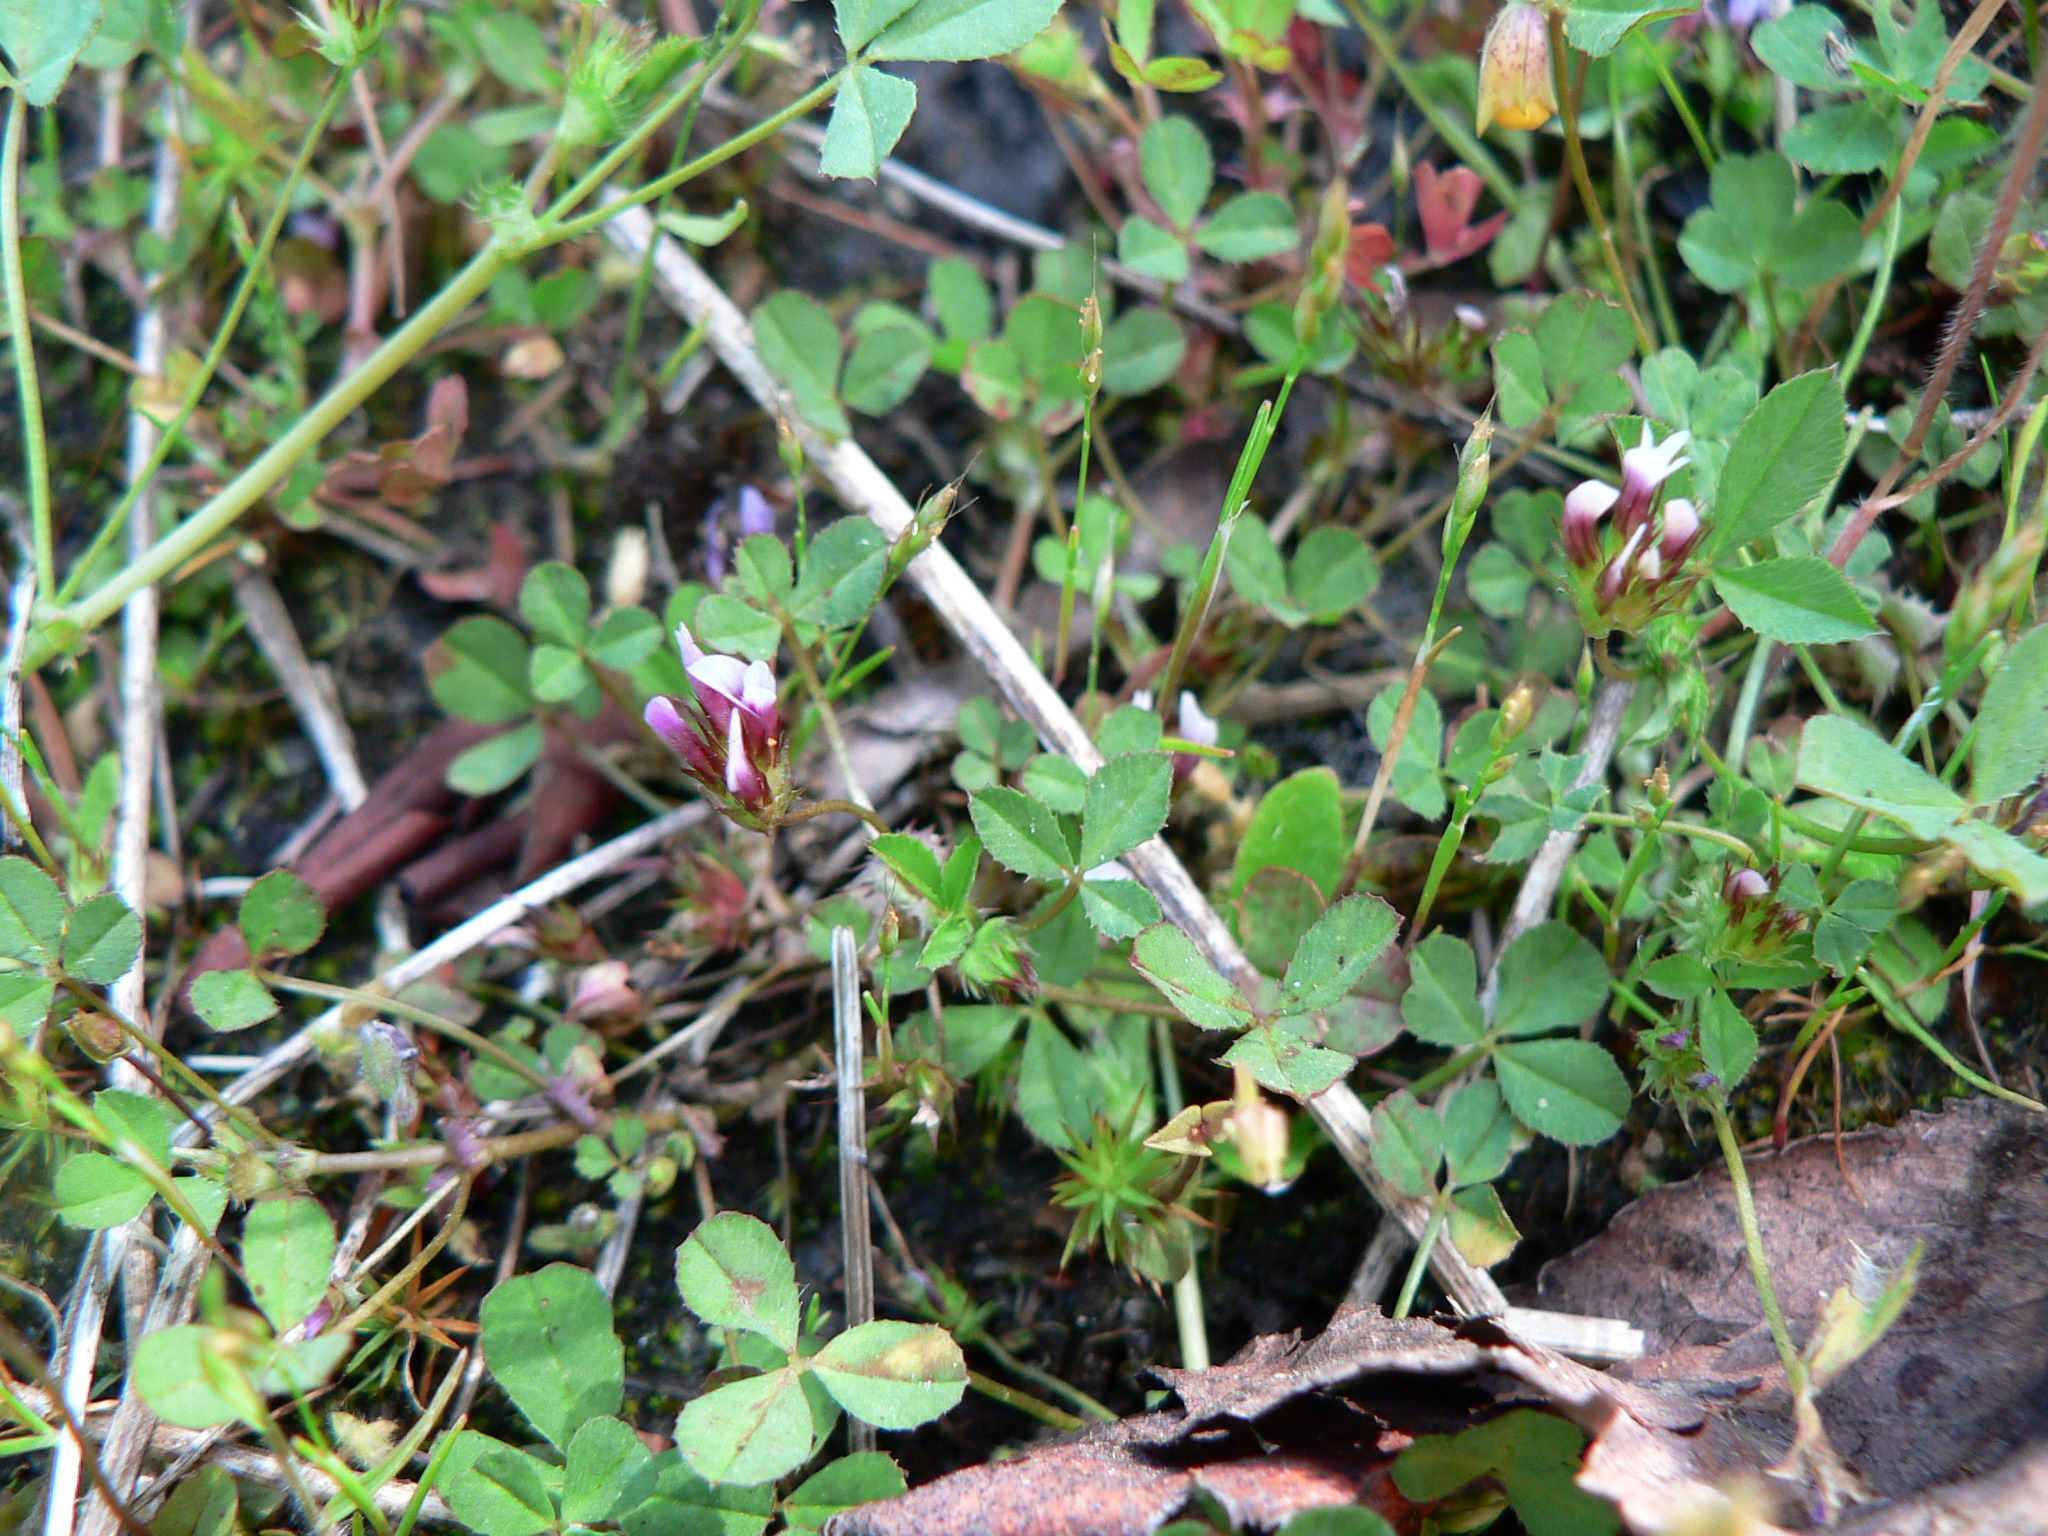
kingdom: Plantae
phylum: Tracheophyta
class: Magnoliopsida
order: Fabales
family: Fabaceae
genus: Trifolium
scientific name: Trifolium variegatum
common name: Whitetip clover
